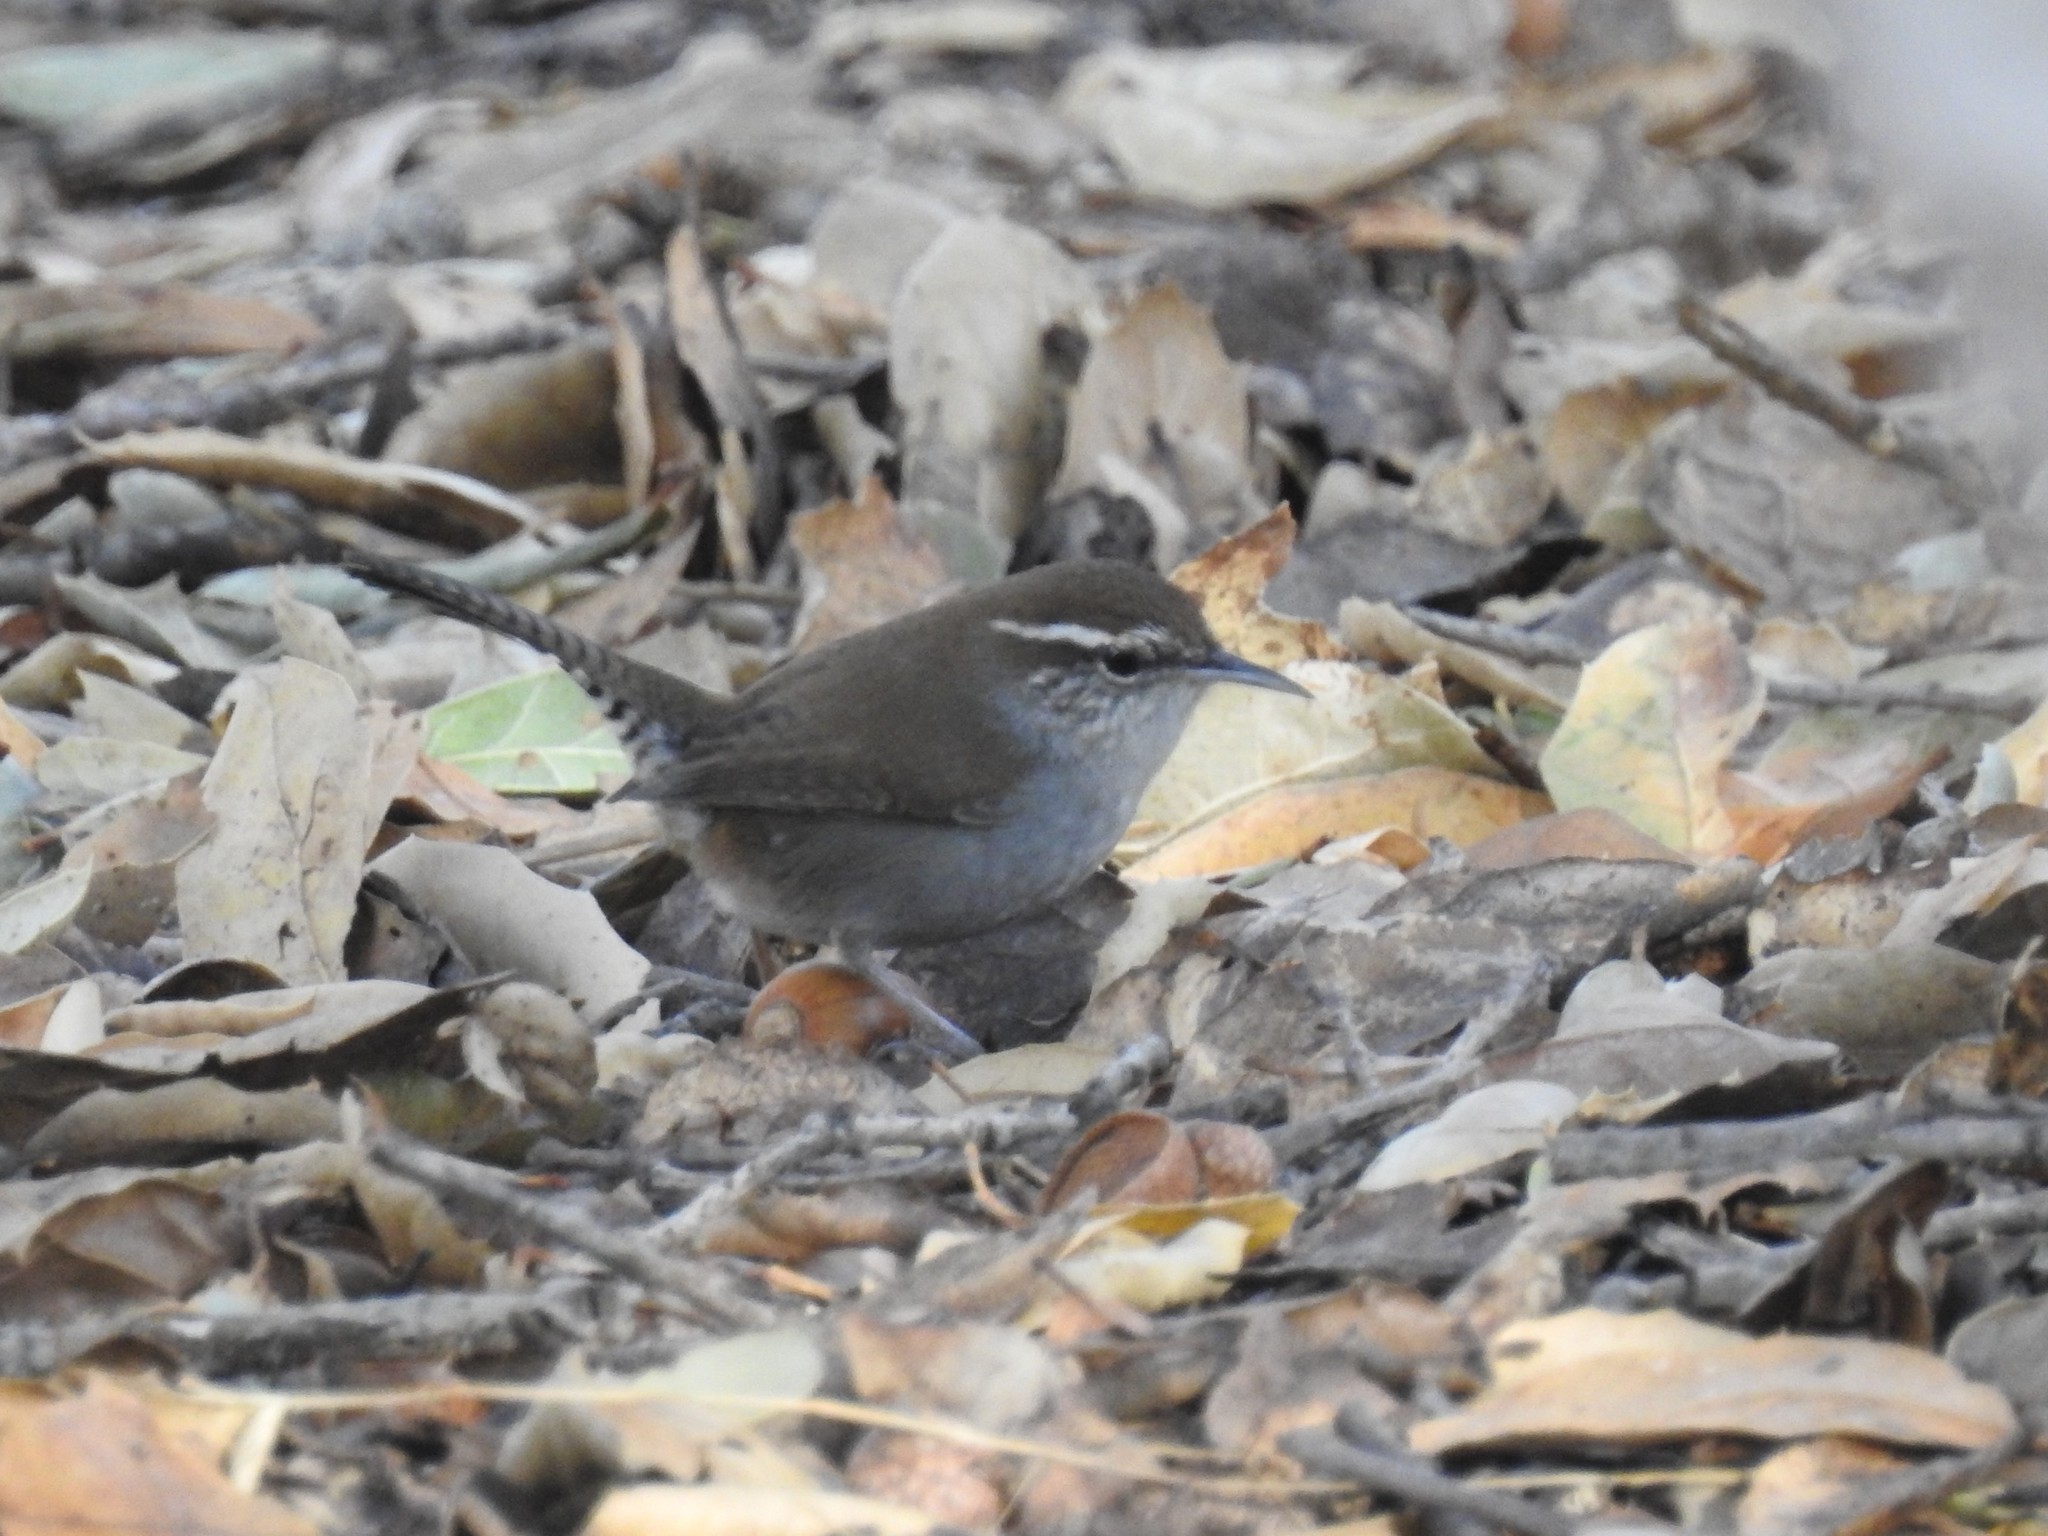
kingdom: Animalia
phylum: Chordata
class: Aves
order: Passeriformes
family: Troglodytidae
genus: Thryomanes
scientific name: Thryomanes bewickii
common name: Bewick's wren
